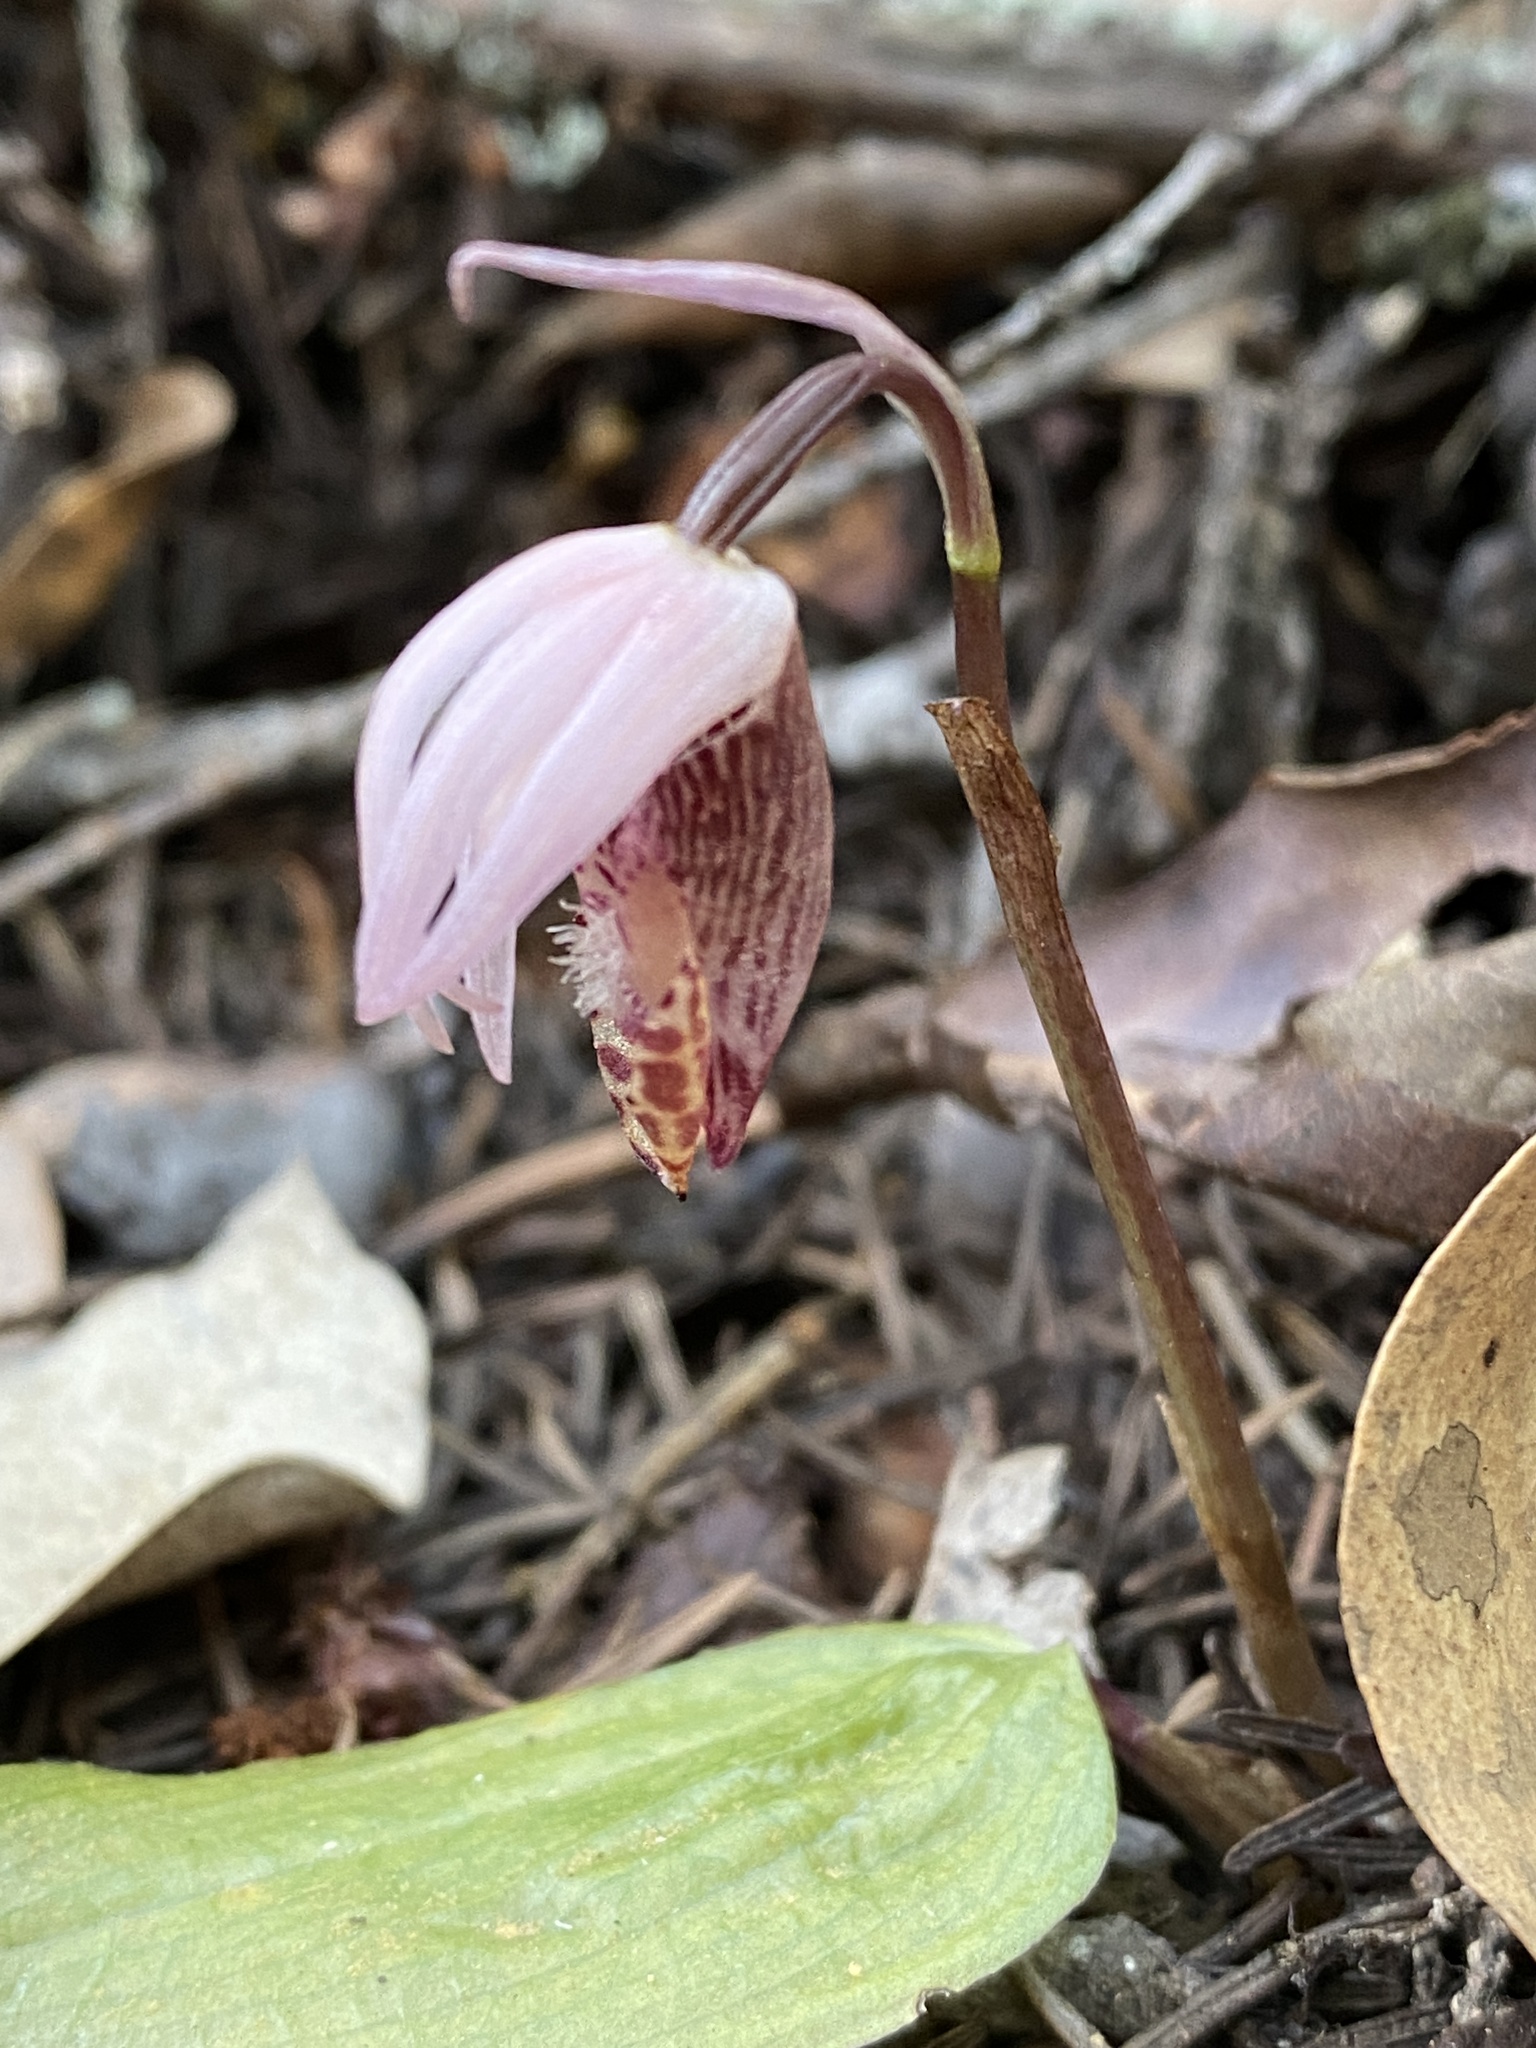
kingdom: Plantae
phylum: Tracheophyta
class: Liliopsida
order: Asparagales
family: Orchidaceae
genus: Calypso
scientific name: Calypso bulbosa
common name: Calypso
